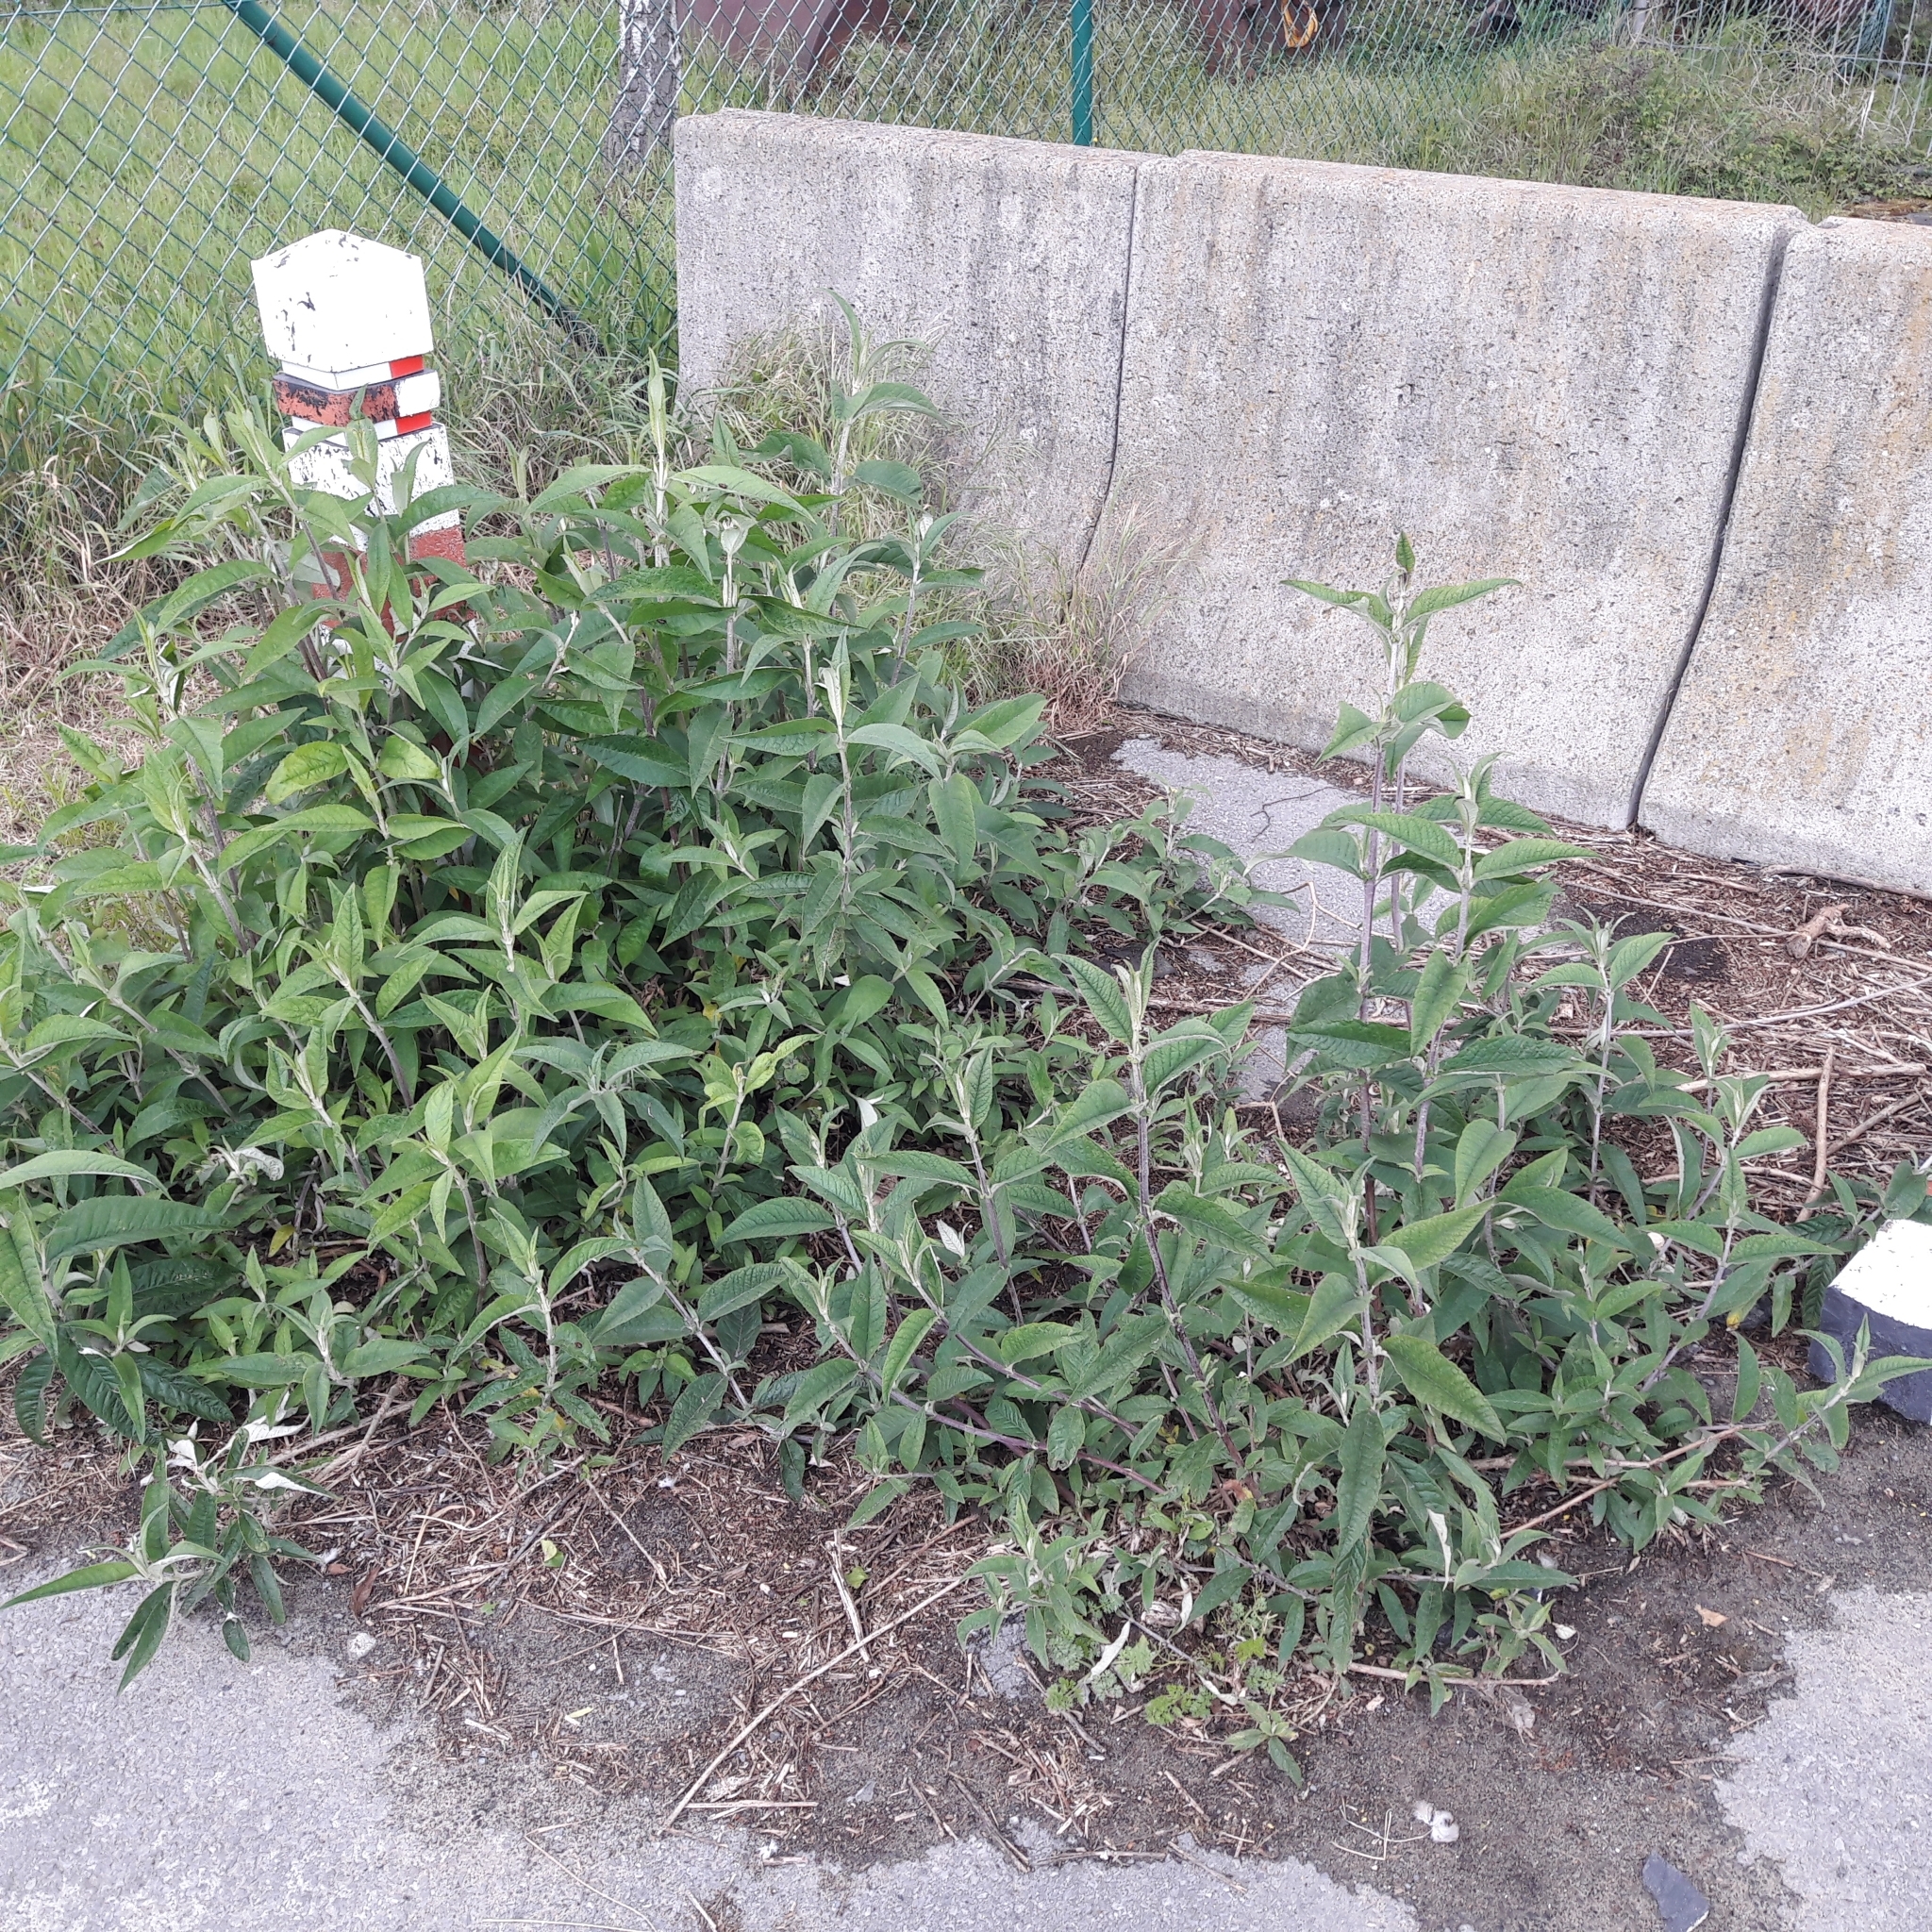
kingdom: Plantae
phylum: Tracheophyta
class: Magnoliopsida
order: Lamiales
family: Scrophulariaceae
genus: Buddleja
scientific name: Buddleja davidii
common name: Butterfly-bush
